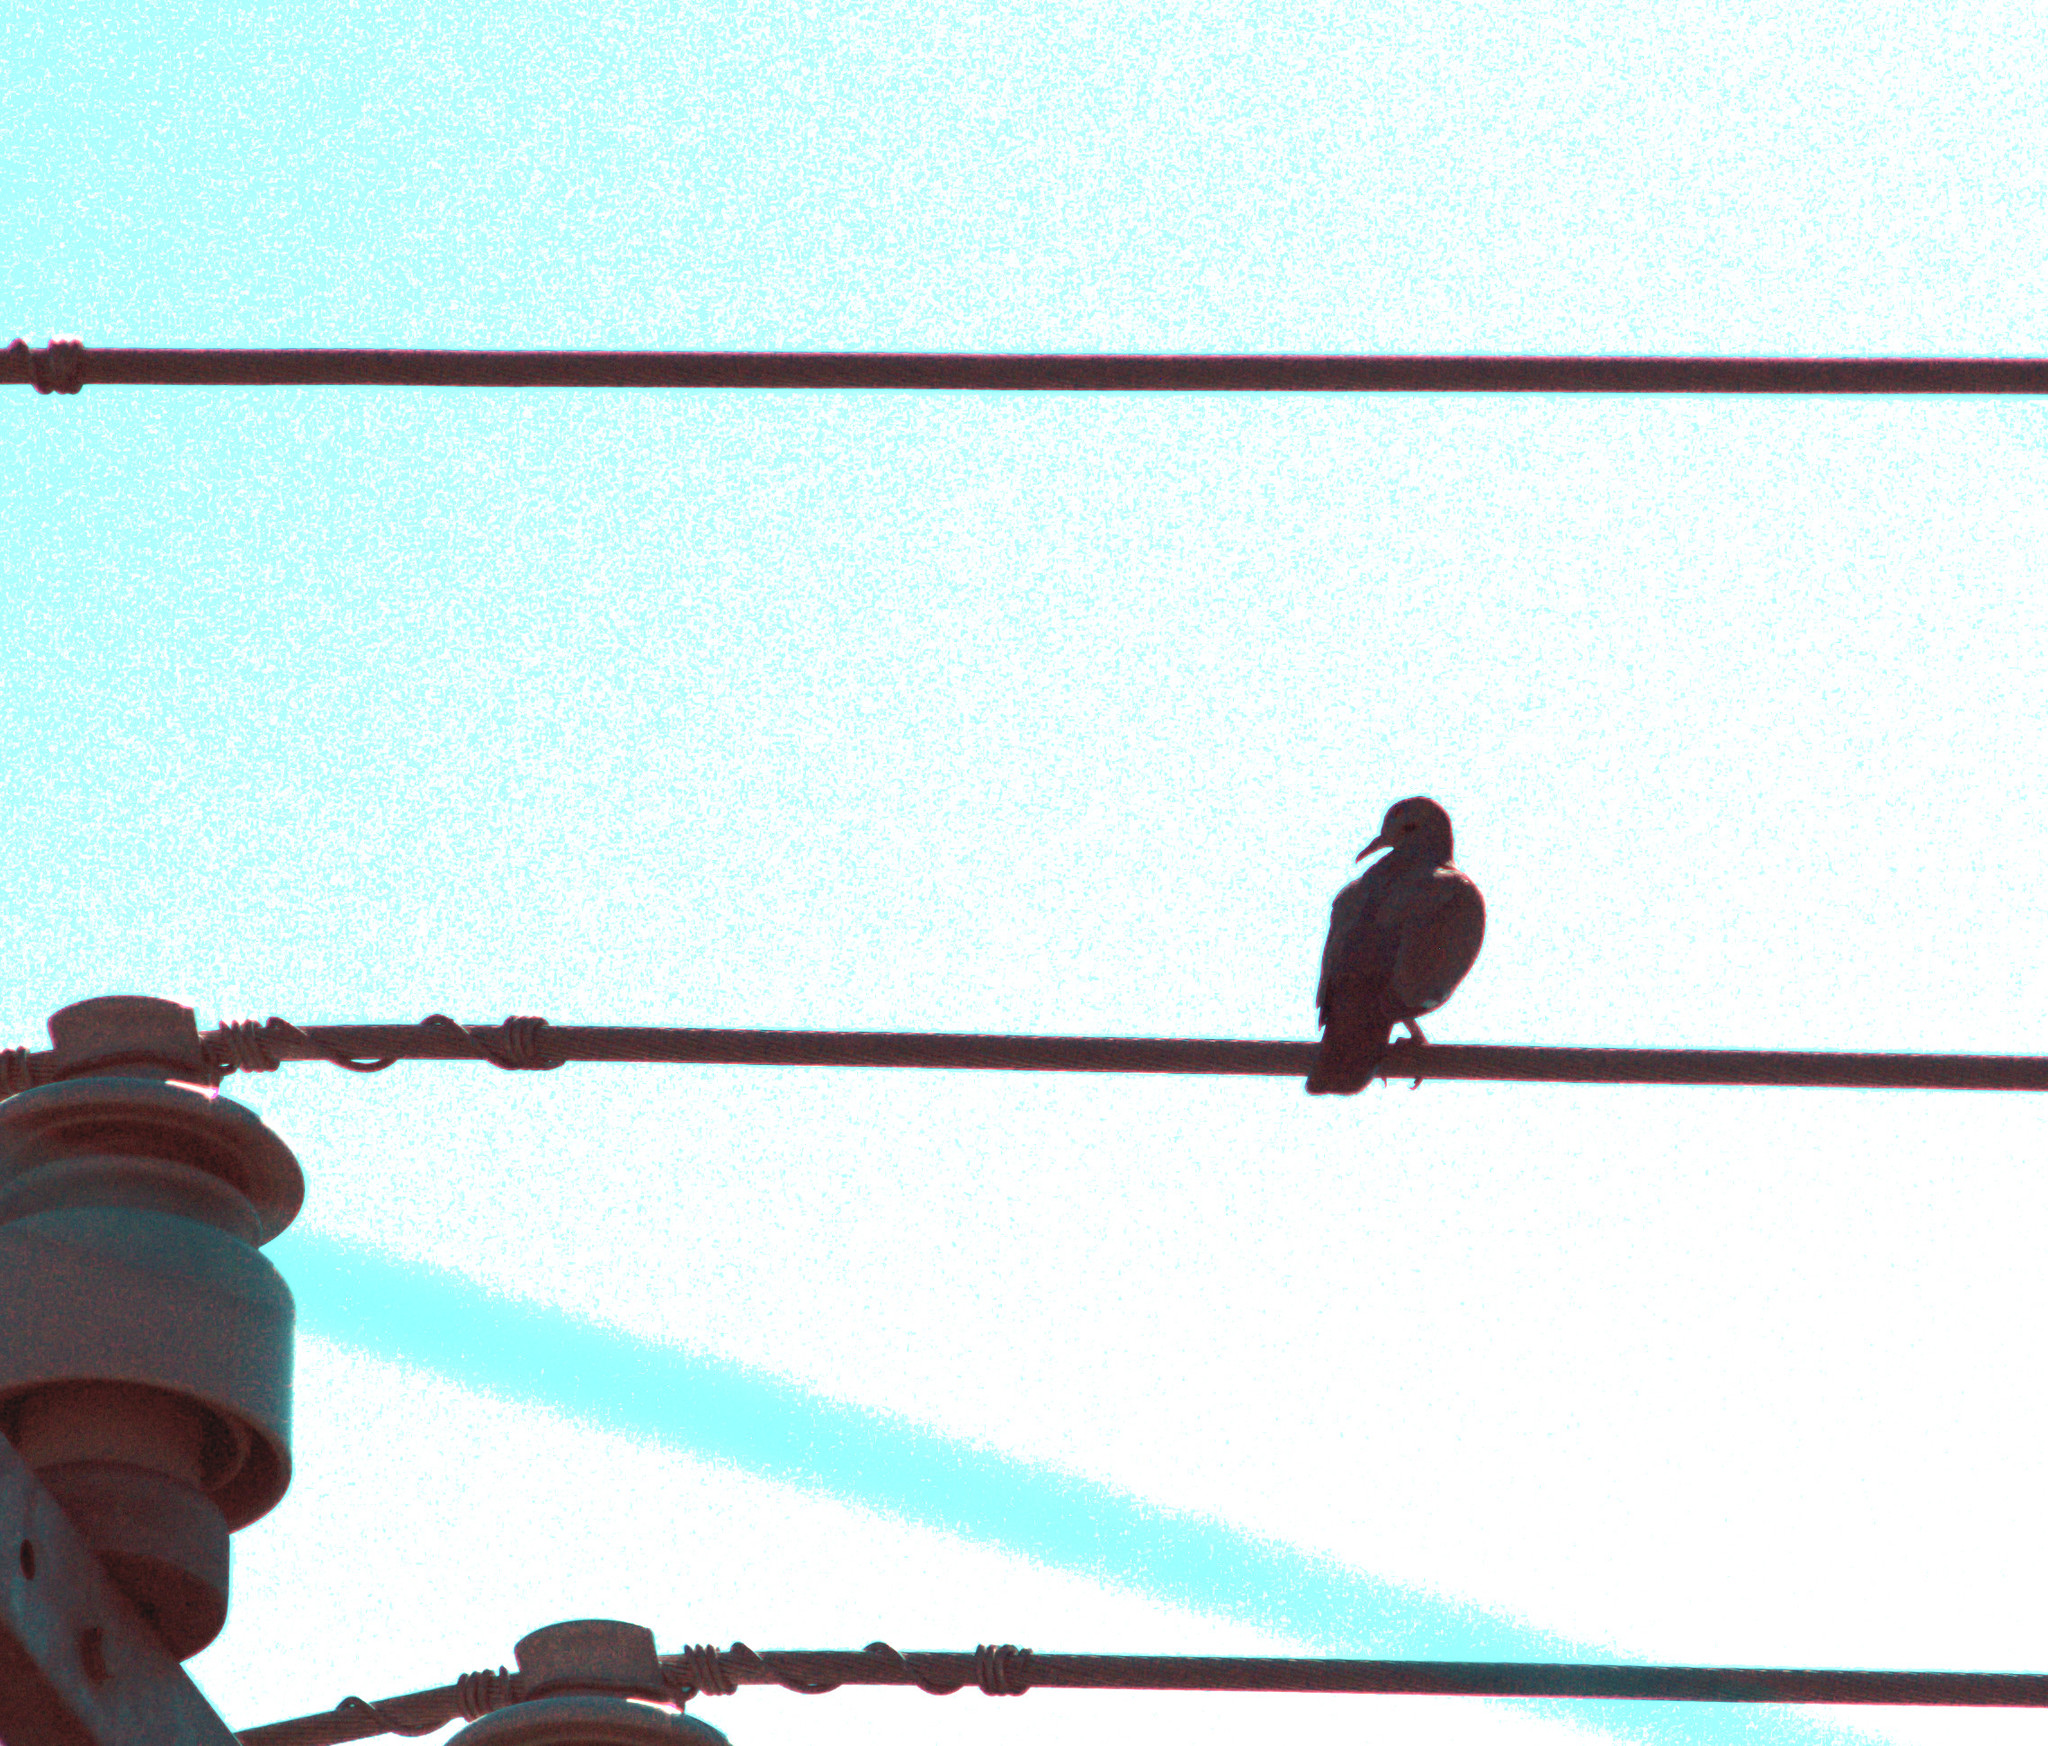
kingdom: Animalia
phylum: Chordata
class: Aves
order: Columbiformes
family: Columbidae
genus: Zenaida
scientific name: Zenaida asiatica
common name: White-winged dove
